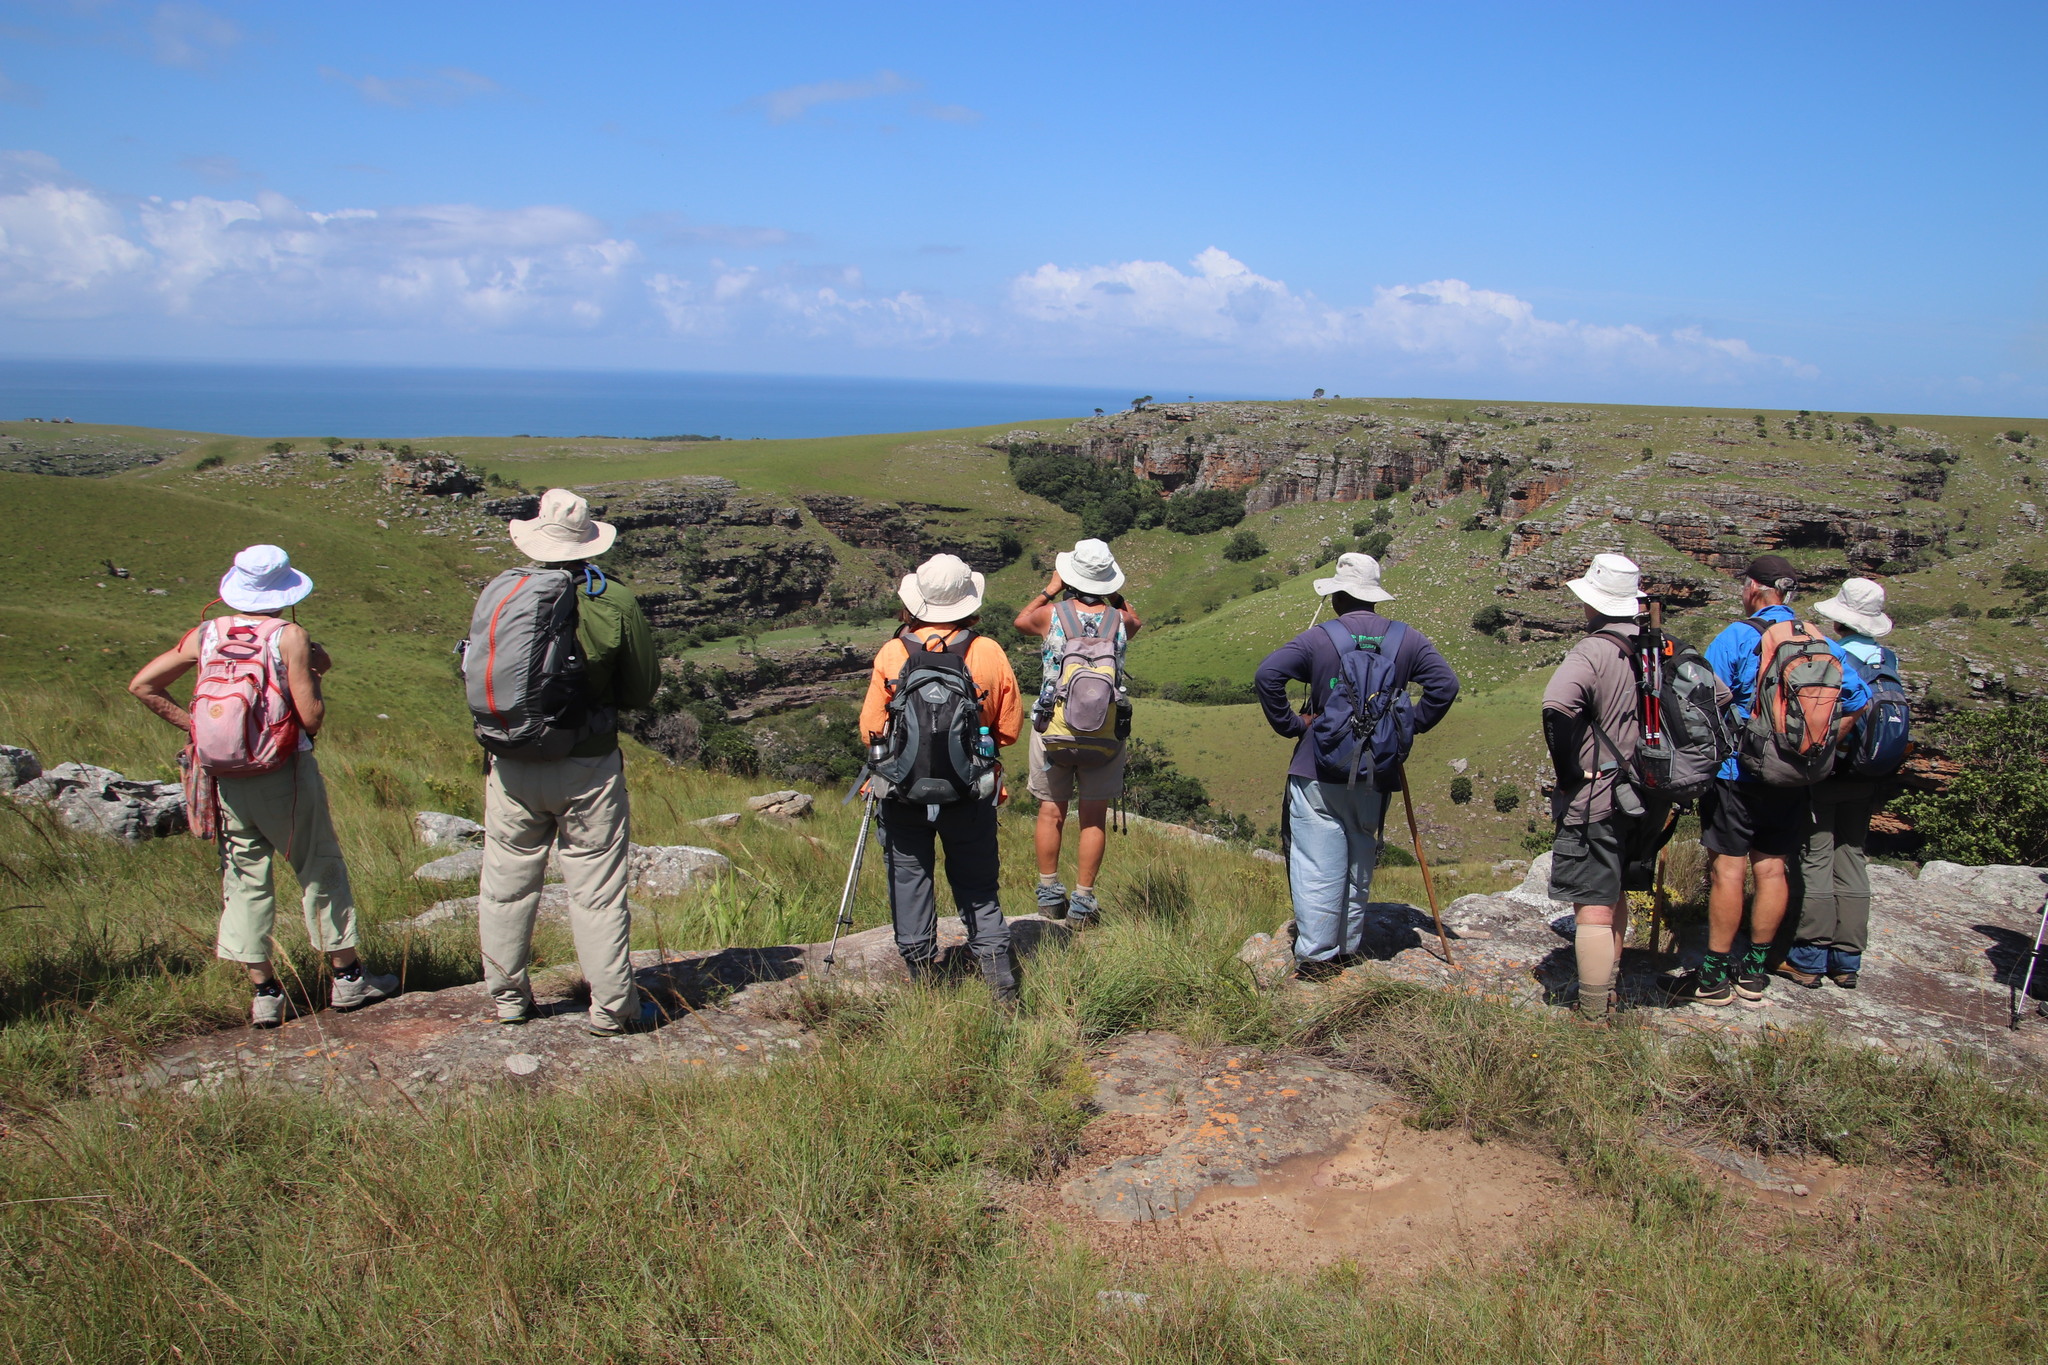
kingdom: Plantae
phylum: Tracheophyta
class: Magnoliopsida
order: Proteales
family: Proteaceae
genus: Leucadendron
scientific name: Leucadendron spissifolium
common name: Spear-leaf conebush
